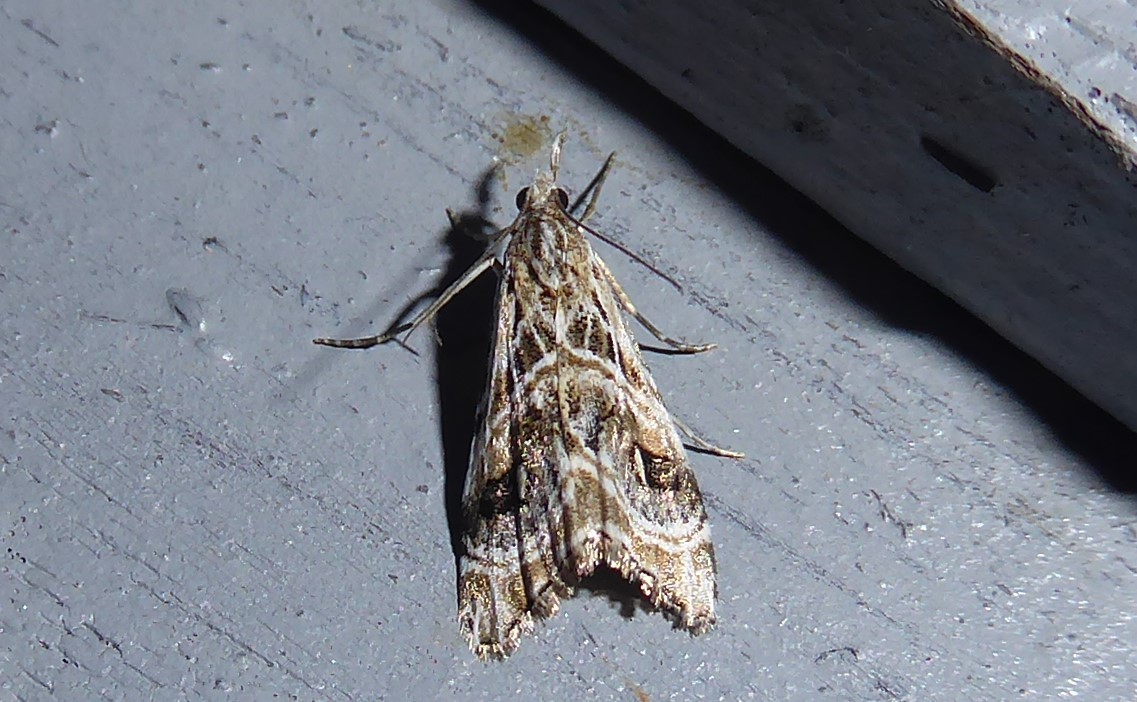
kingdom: Animalia
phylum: Arthropoda
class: Insecta
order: Lepidoptera
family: Crambidae
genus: Gadira
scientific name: Gadira acerella
